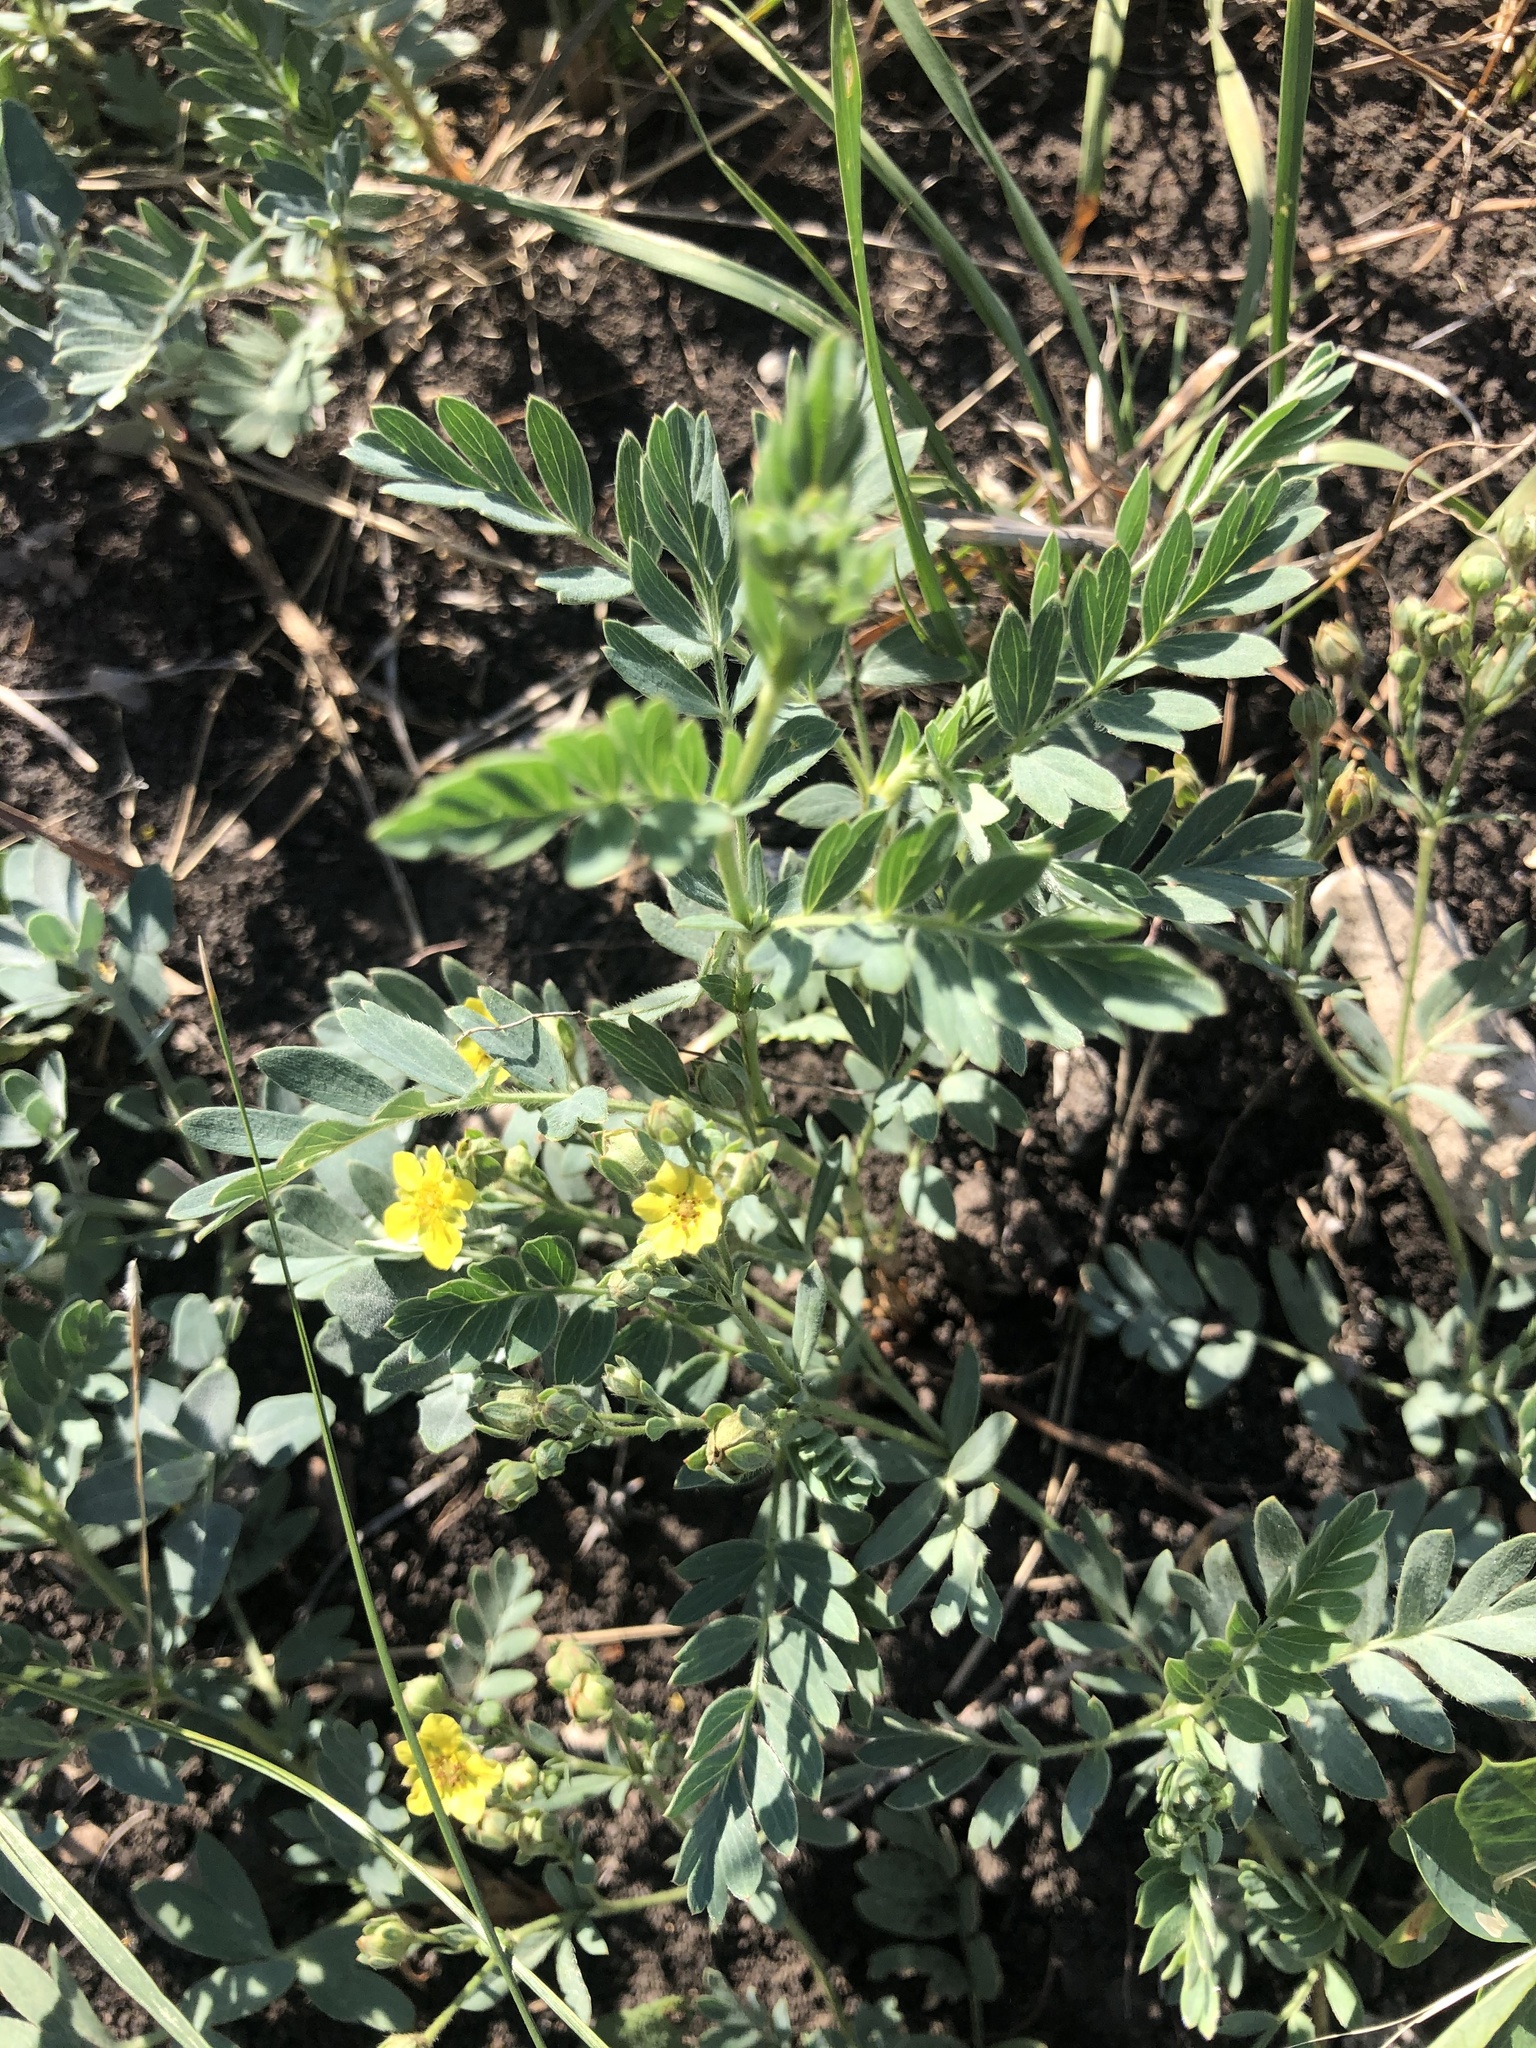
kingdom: Plantae
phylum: Tracheophyta
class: Magnoliopsida
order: Rosales
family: Rosaceae
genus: Sibbaldianthe
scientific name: Sibbaldianthe bifurca
